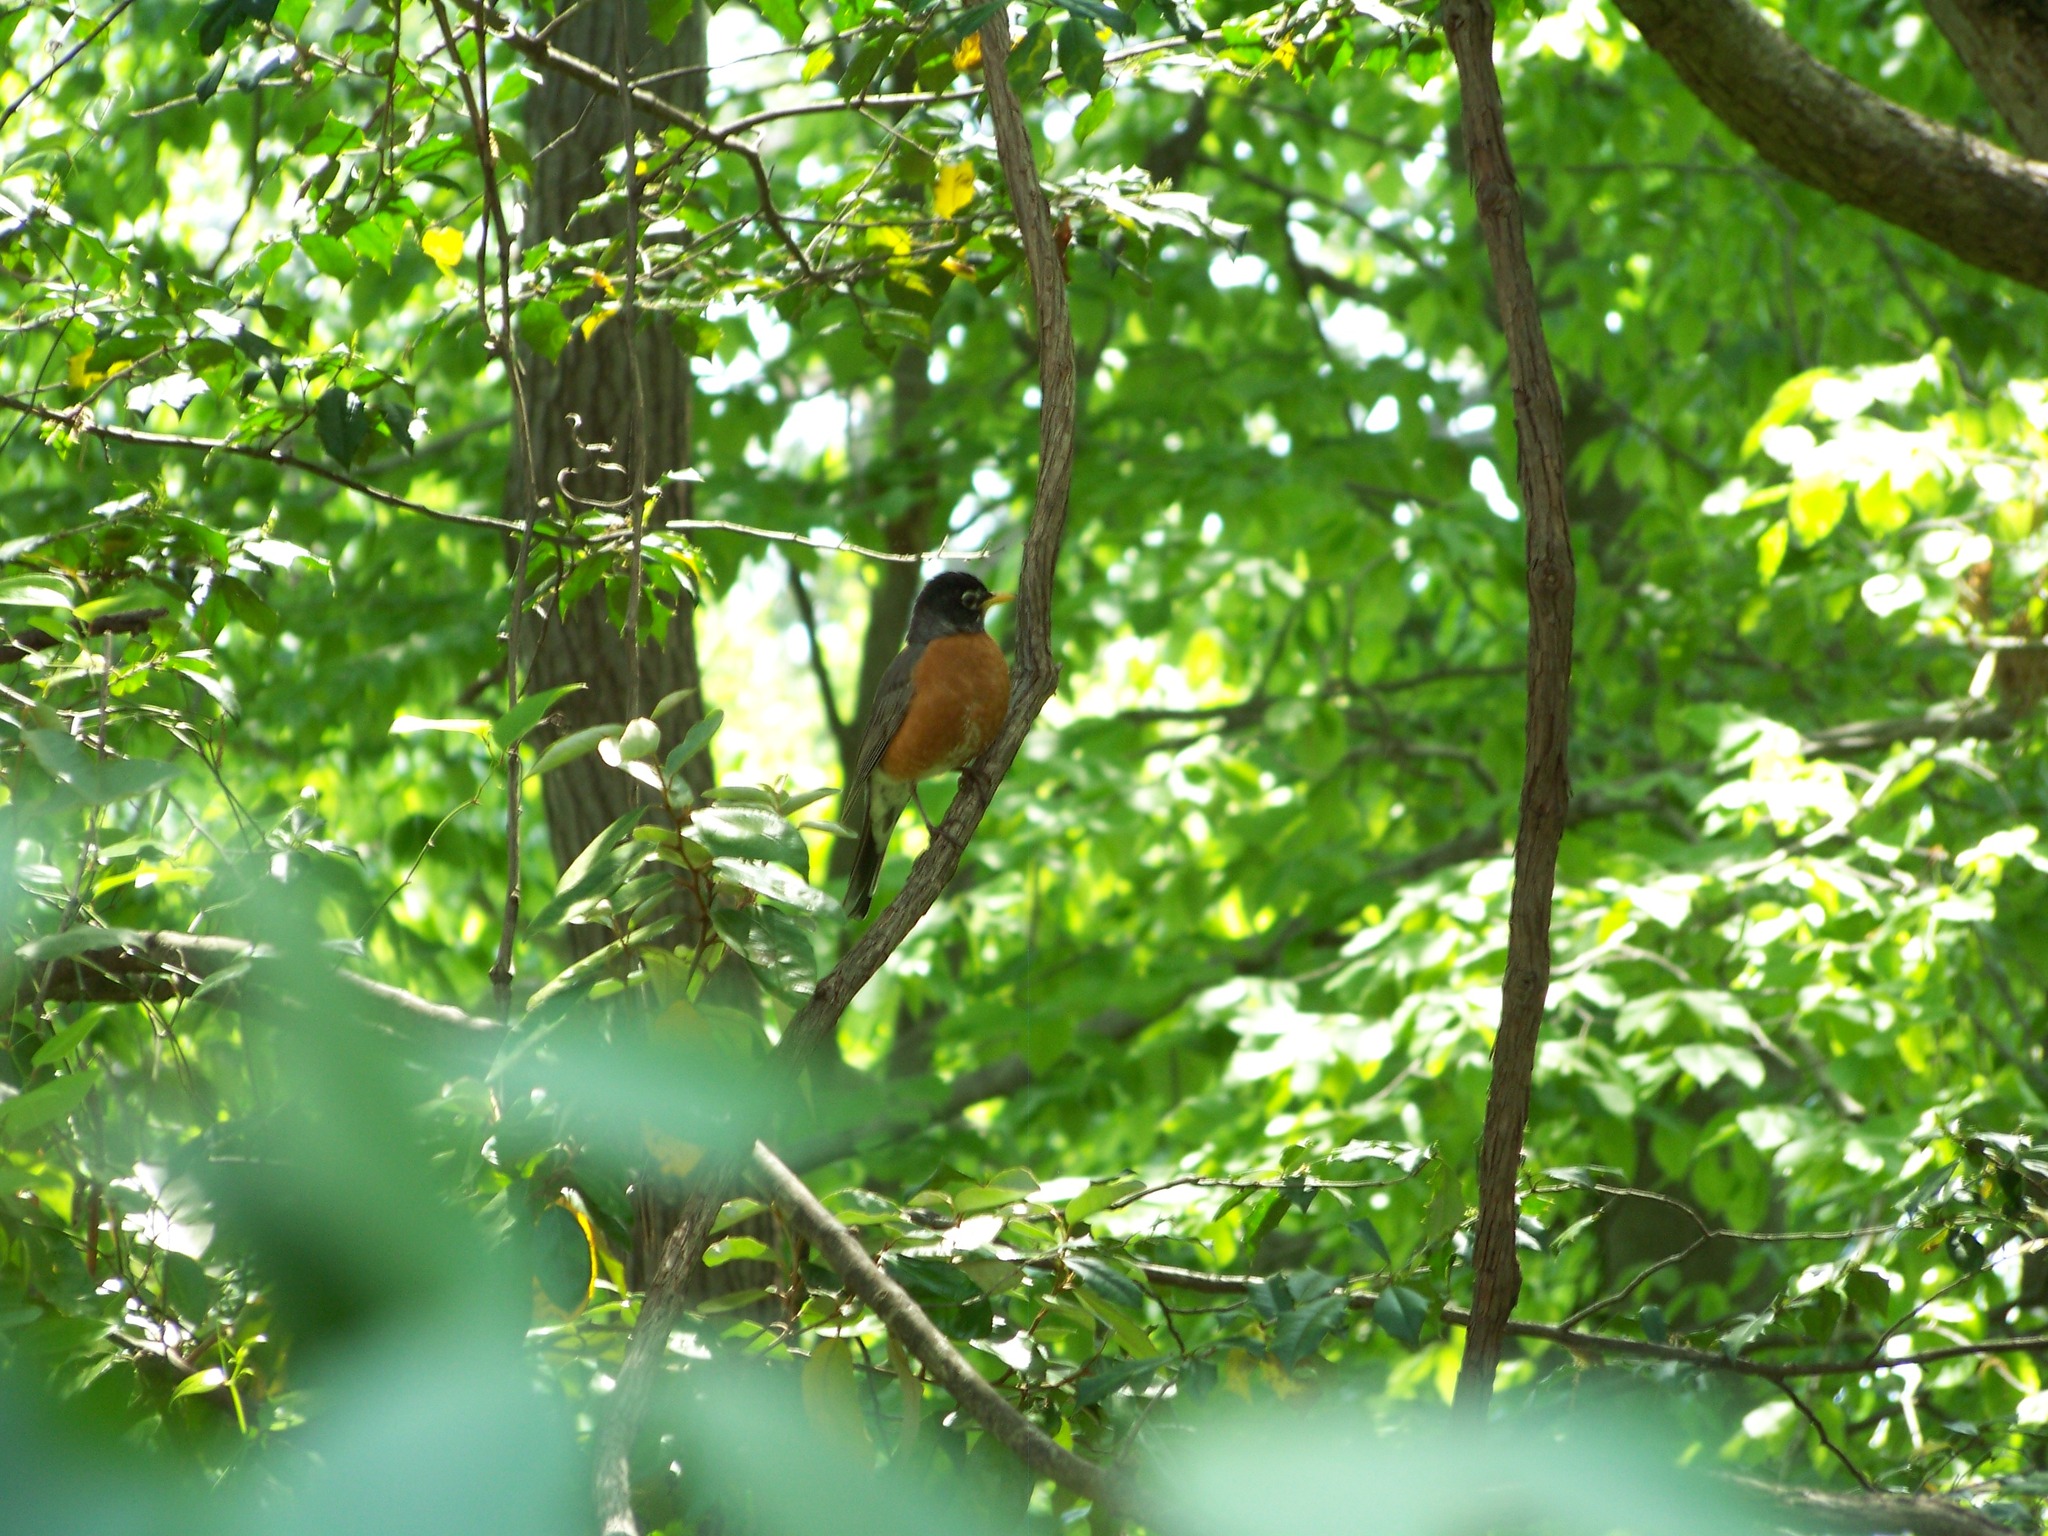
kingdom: Animalia
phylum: Chordata
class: Aves
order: Passeriformes
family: Turdidae
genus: Turdus
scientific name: Turdus migratorius
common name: American robin
